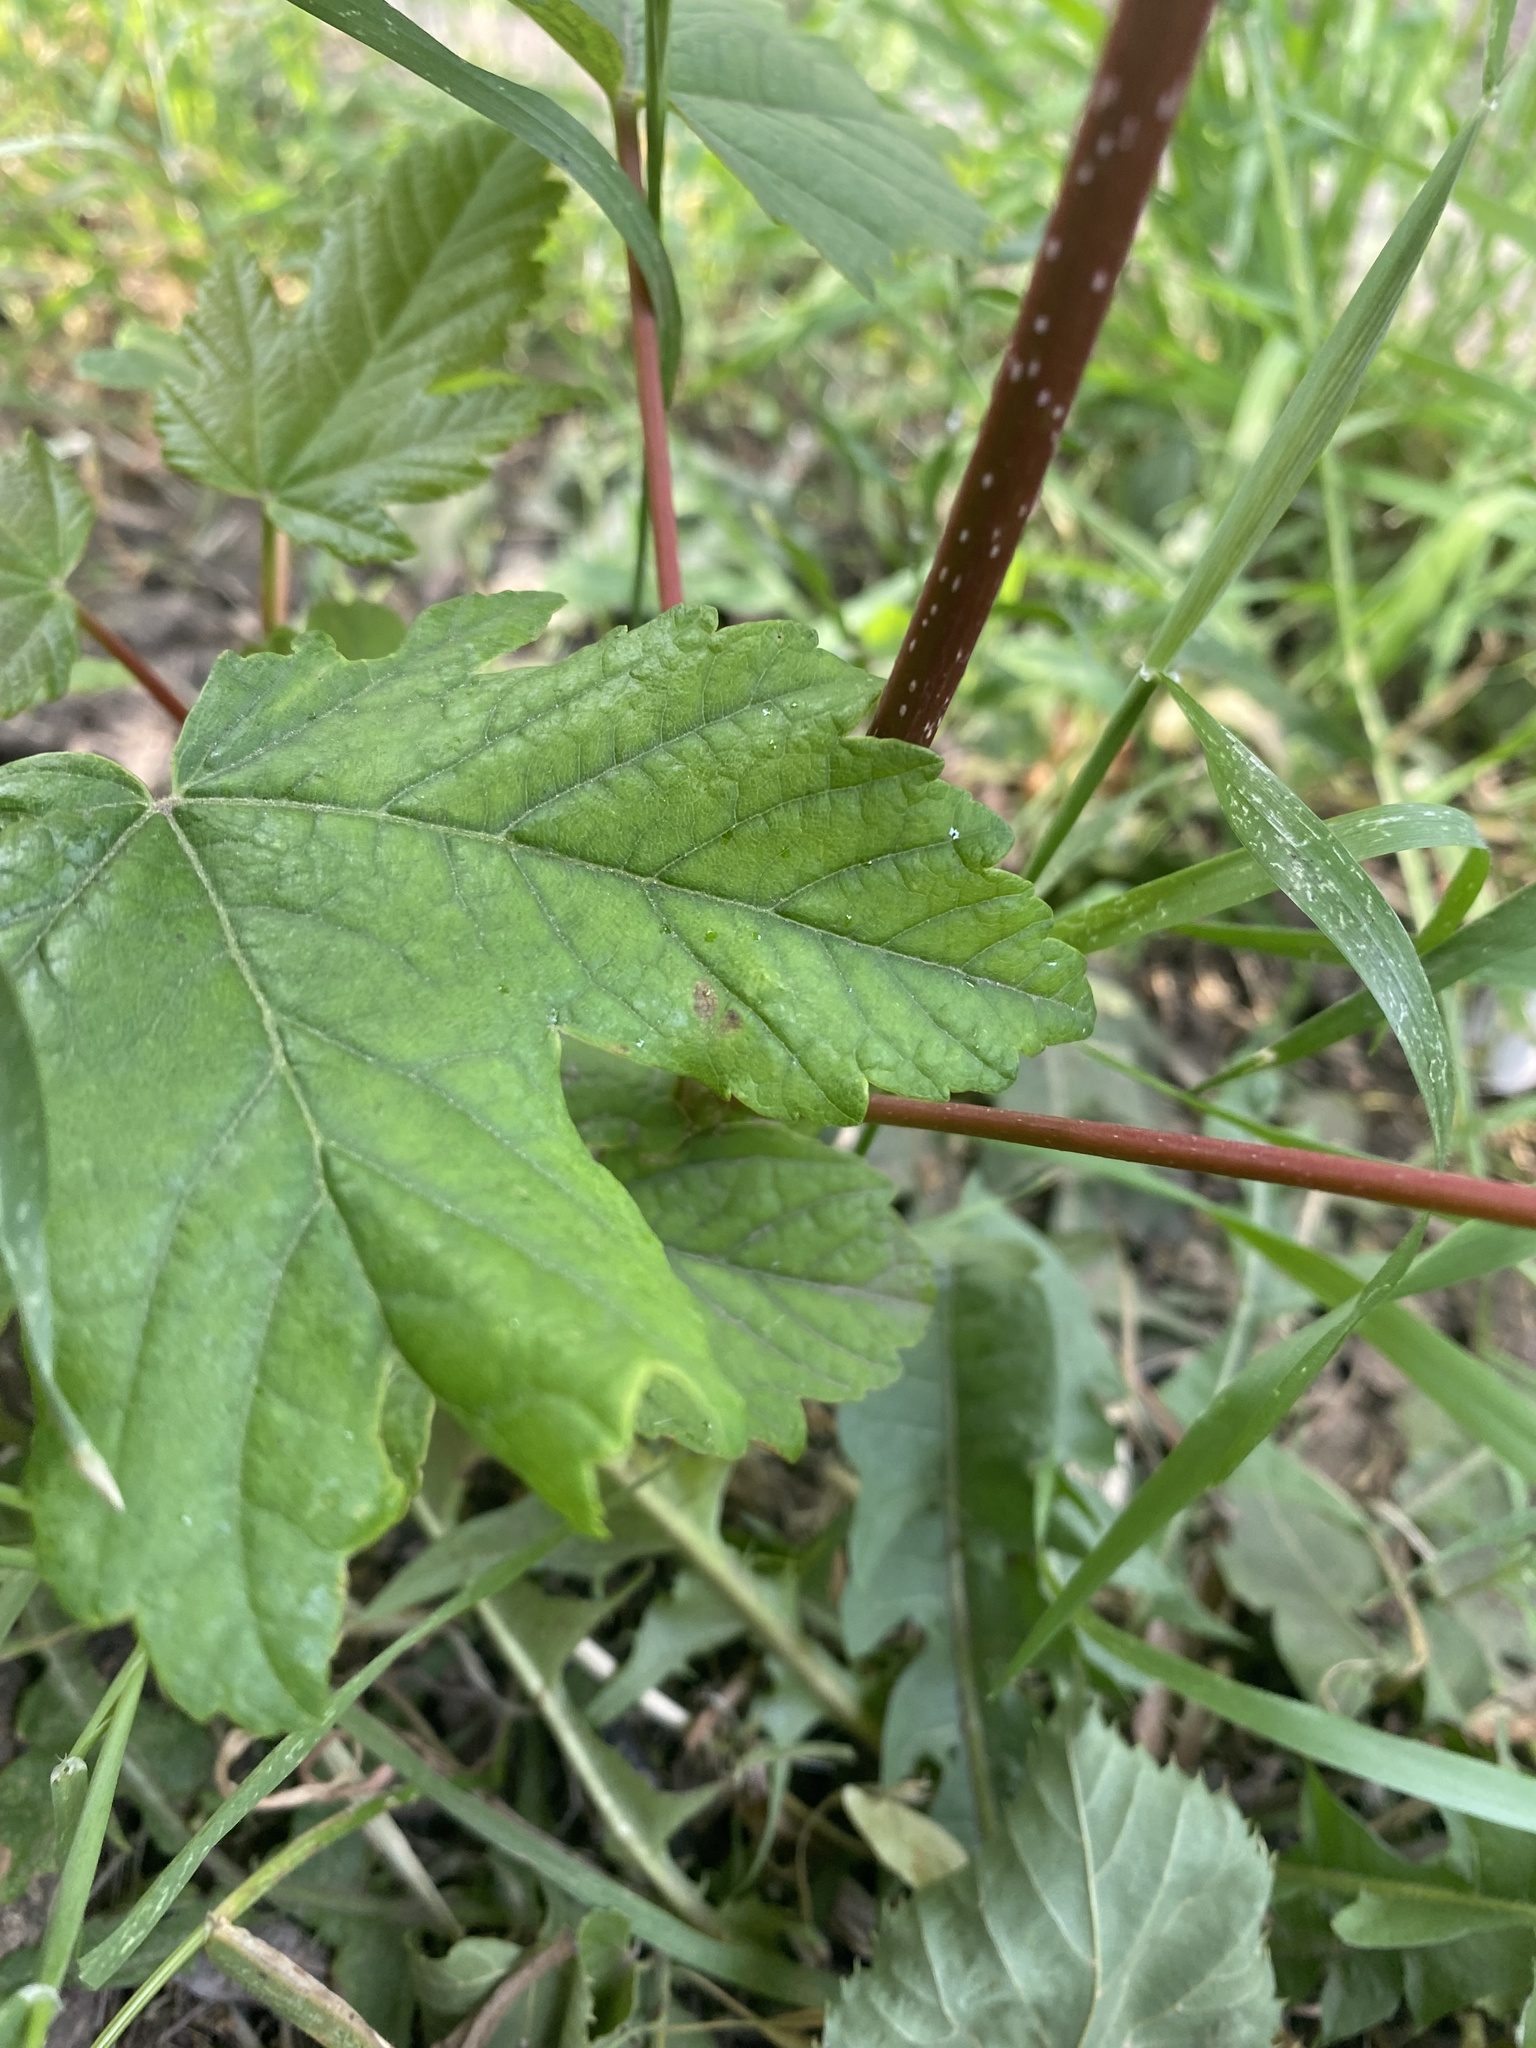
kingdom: Plantae
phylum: Tracheophyta
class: Magnoliopsida
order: Sapindales
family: Sapindaceae
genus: Acer
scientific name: Acer pseudoplatanus
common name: Sycamore
